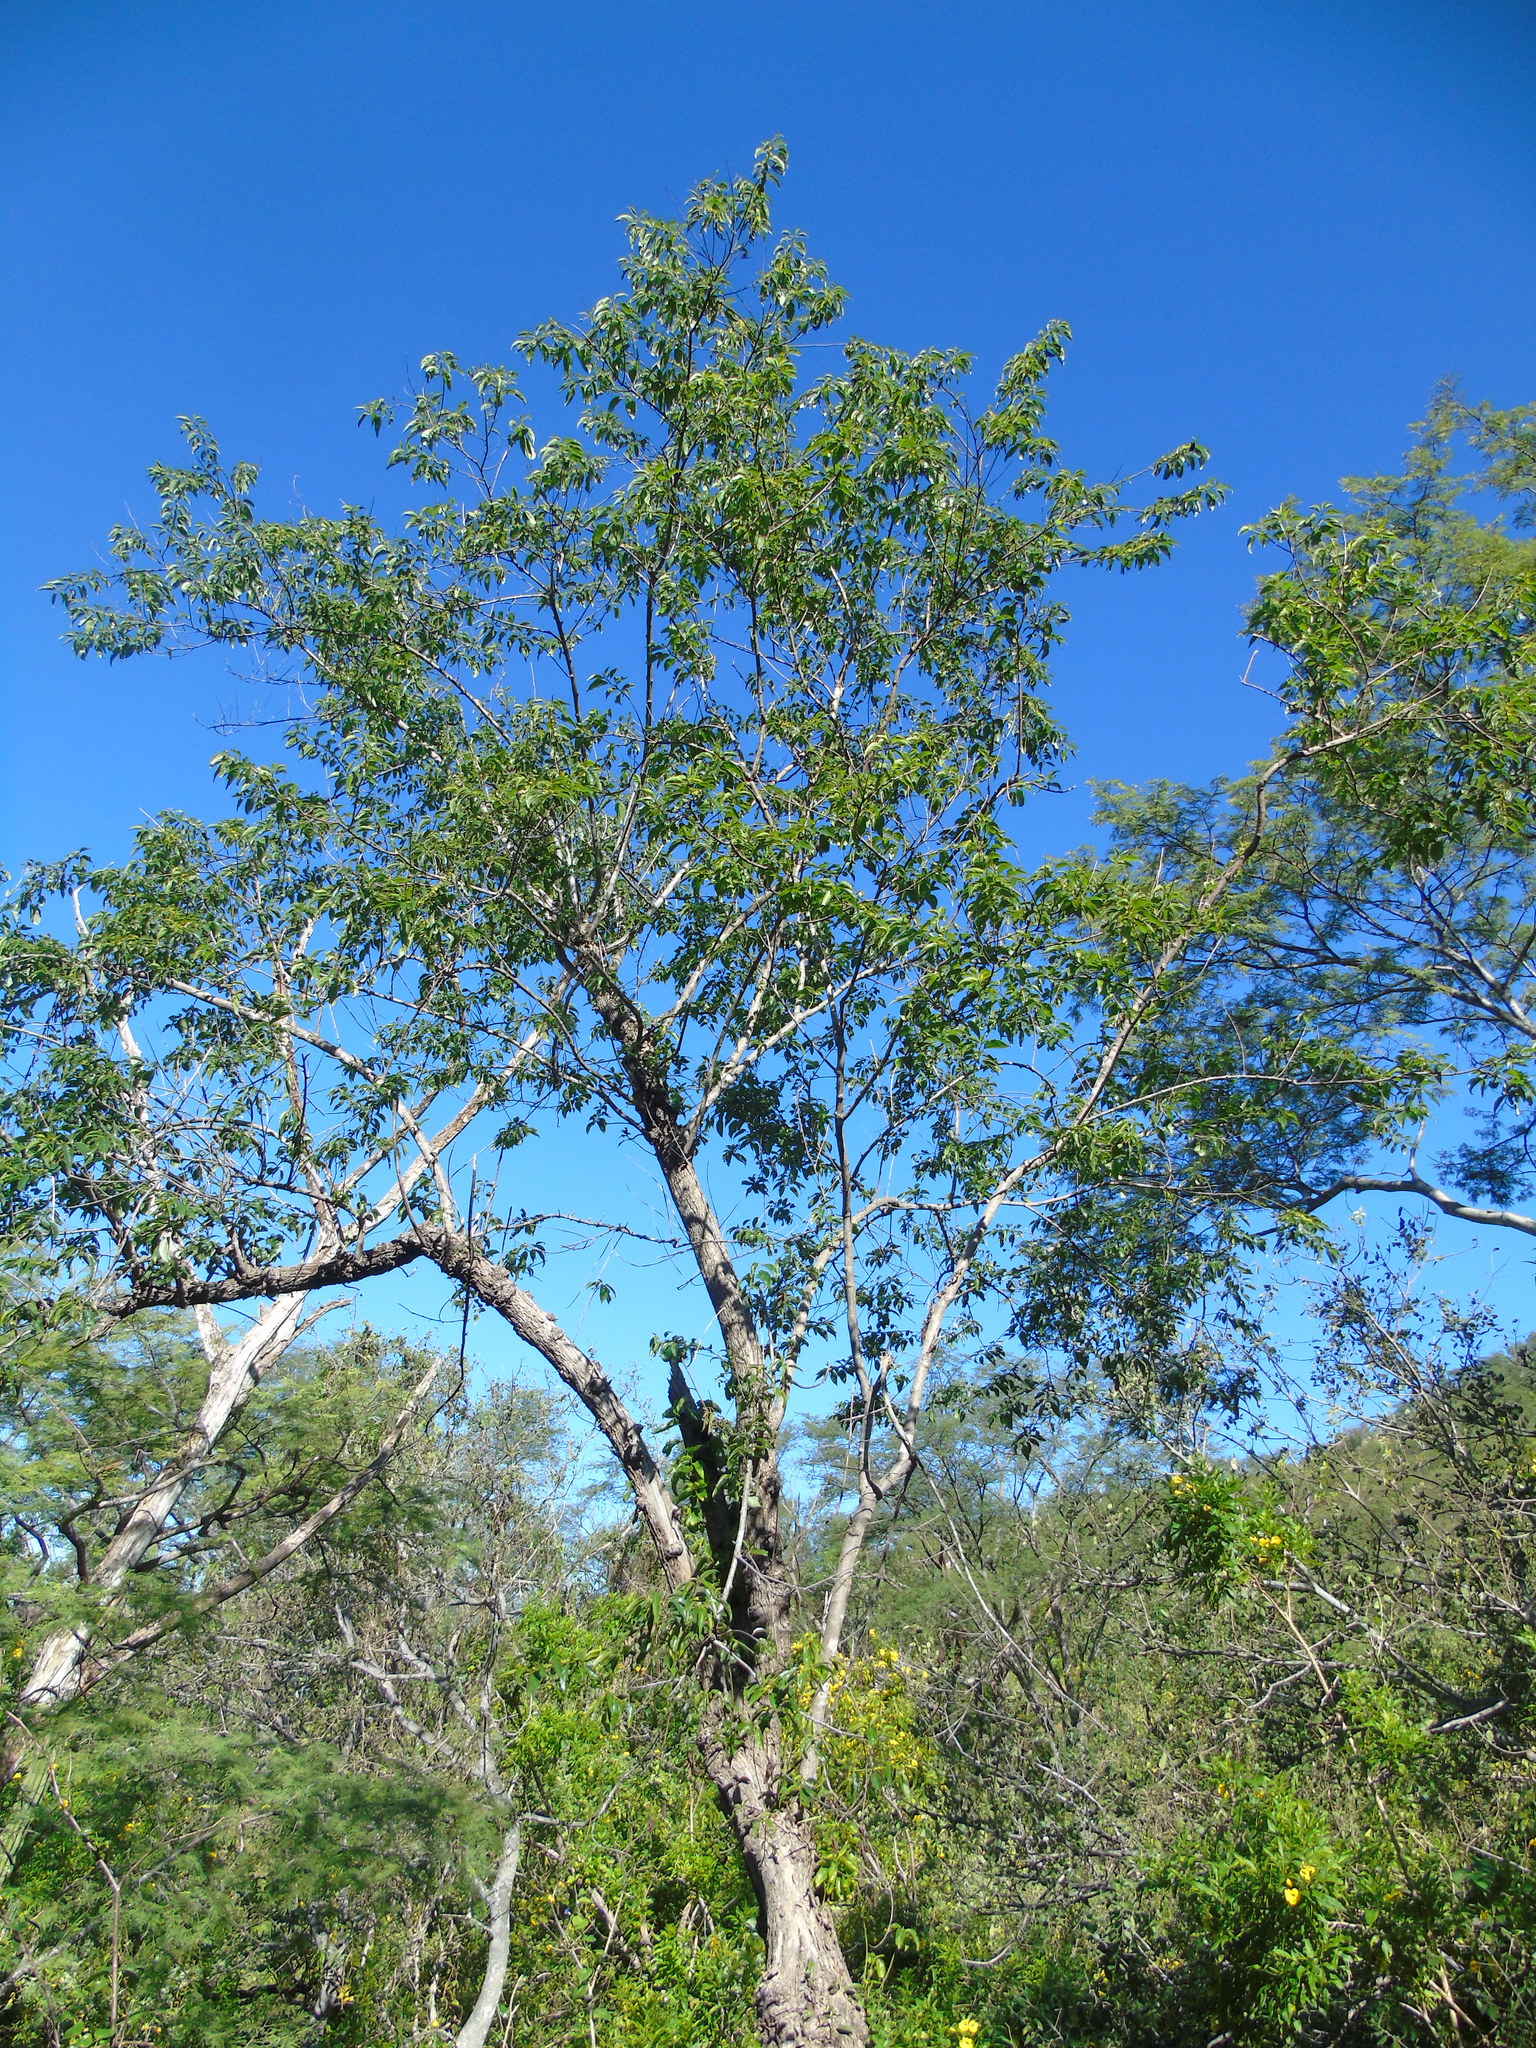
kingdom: Plantae
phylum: Tracheophyta
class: Magnoliopsida
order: Rosales
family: Rhamnaceae
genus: Colubrina
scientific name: Colubrina triflora
